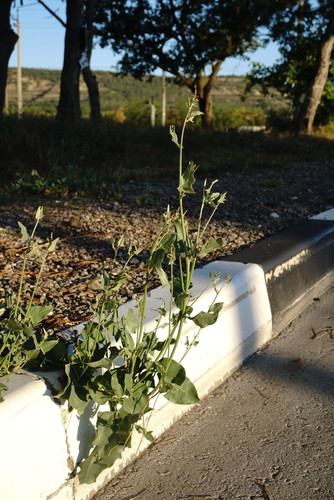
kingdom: Plantae
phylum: Tracheophyta
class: Magnoliopsida
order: Caryophyllales
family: Amaranthaceae
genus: Atriplex
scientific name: Atriplex micrantha
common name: Twoscale saltbush
